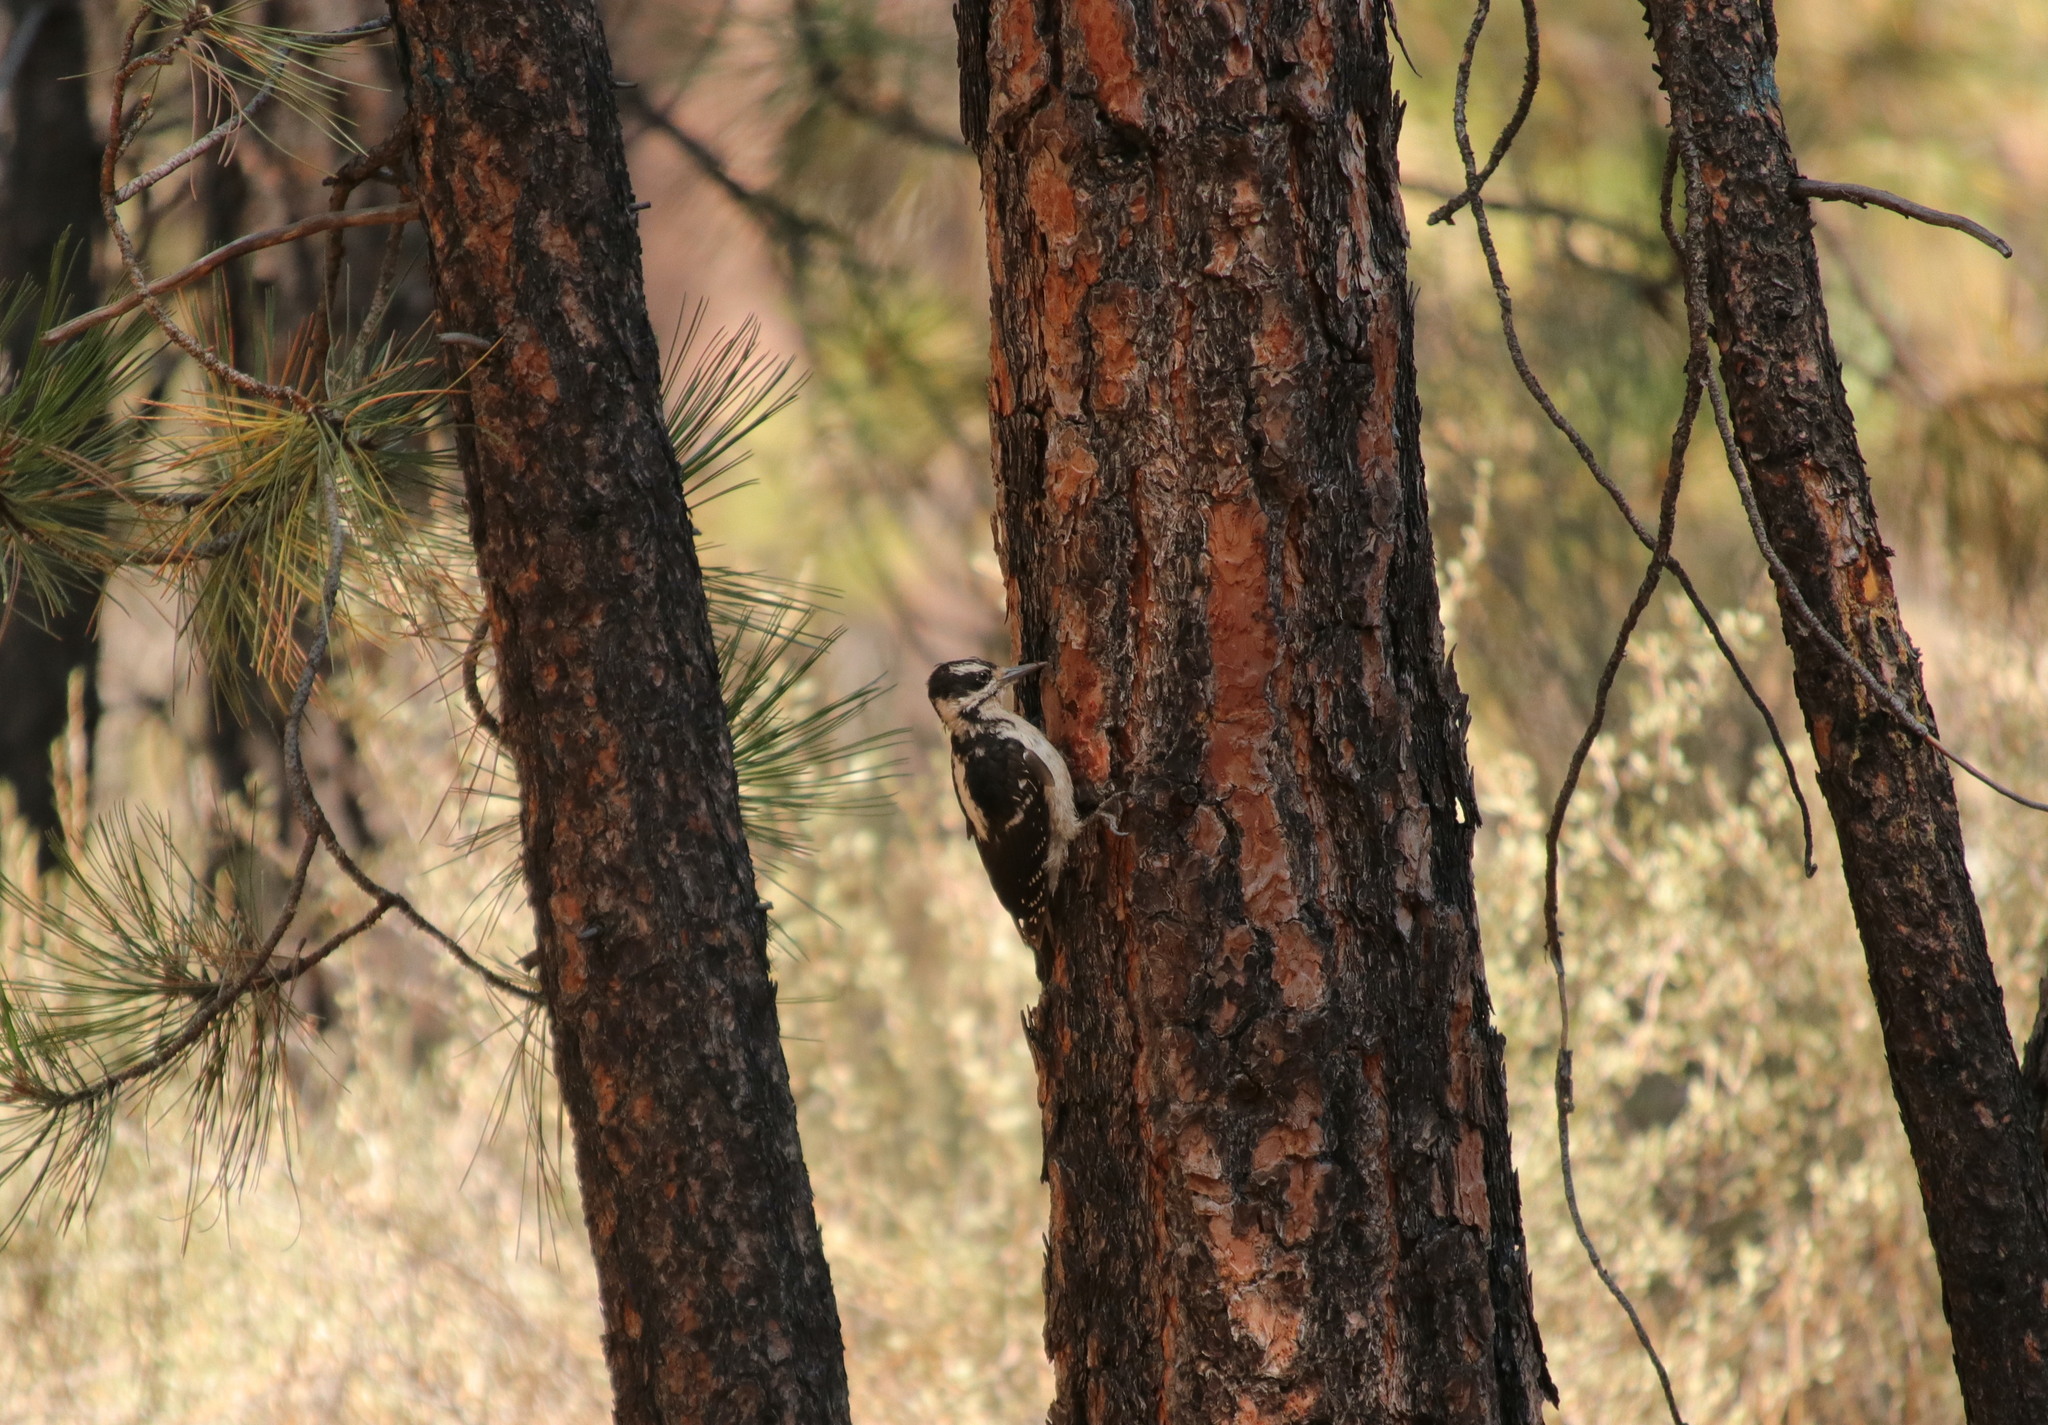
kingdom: Animalia
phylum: Chordata
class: Aves
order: Piciformes
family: Picidae
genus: Leuconotopicus
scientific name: Leuconotopicus villosus
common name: Hairy woodpecker
